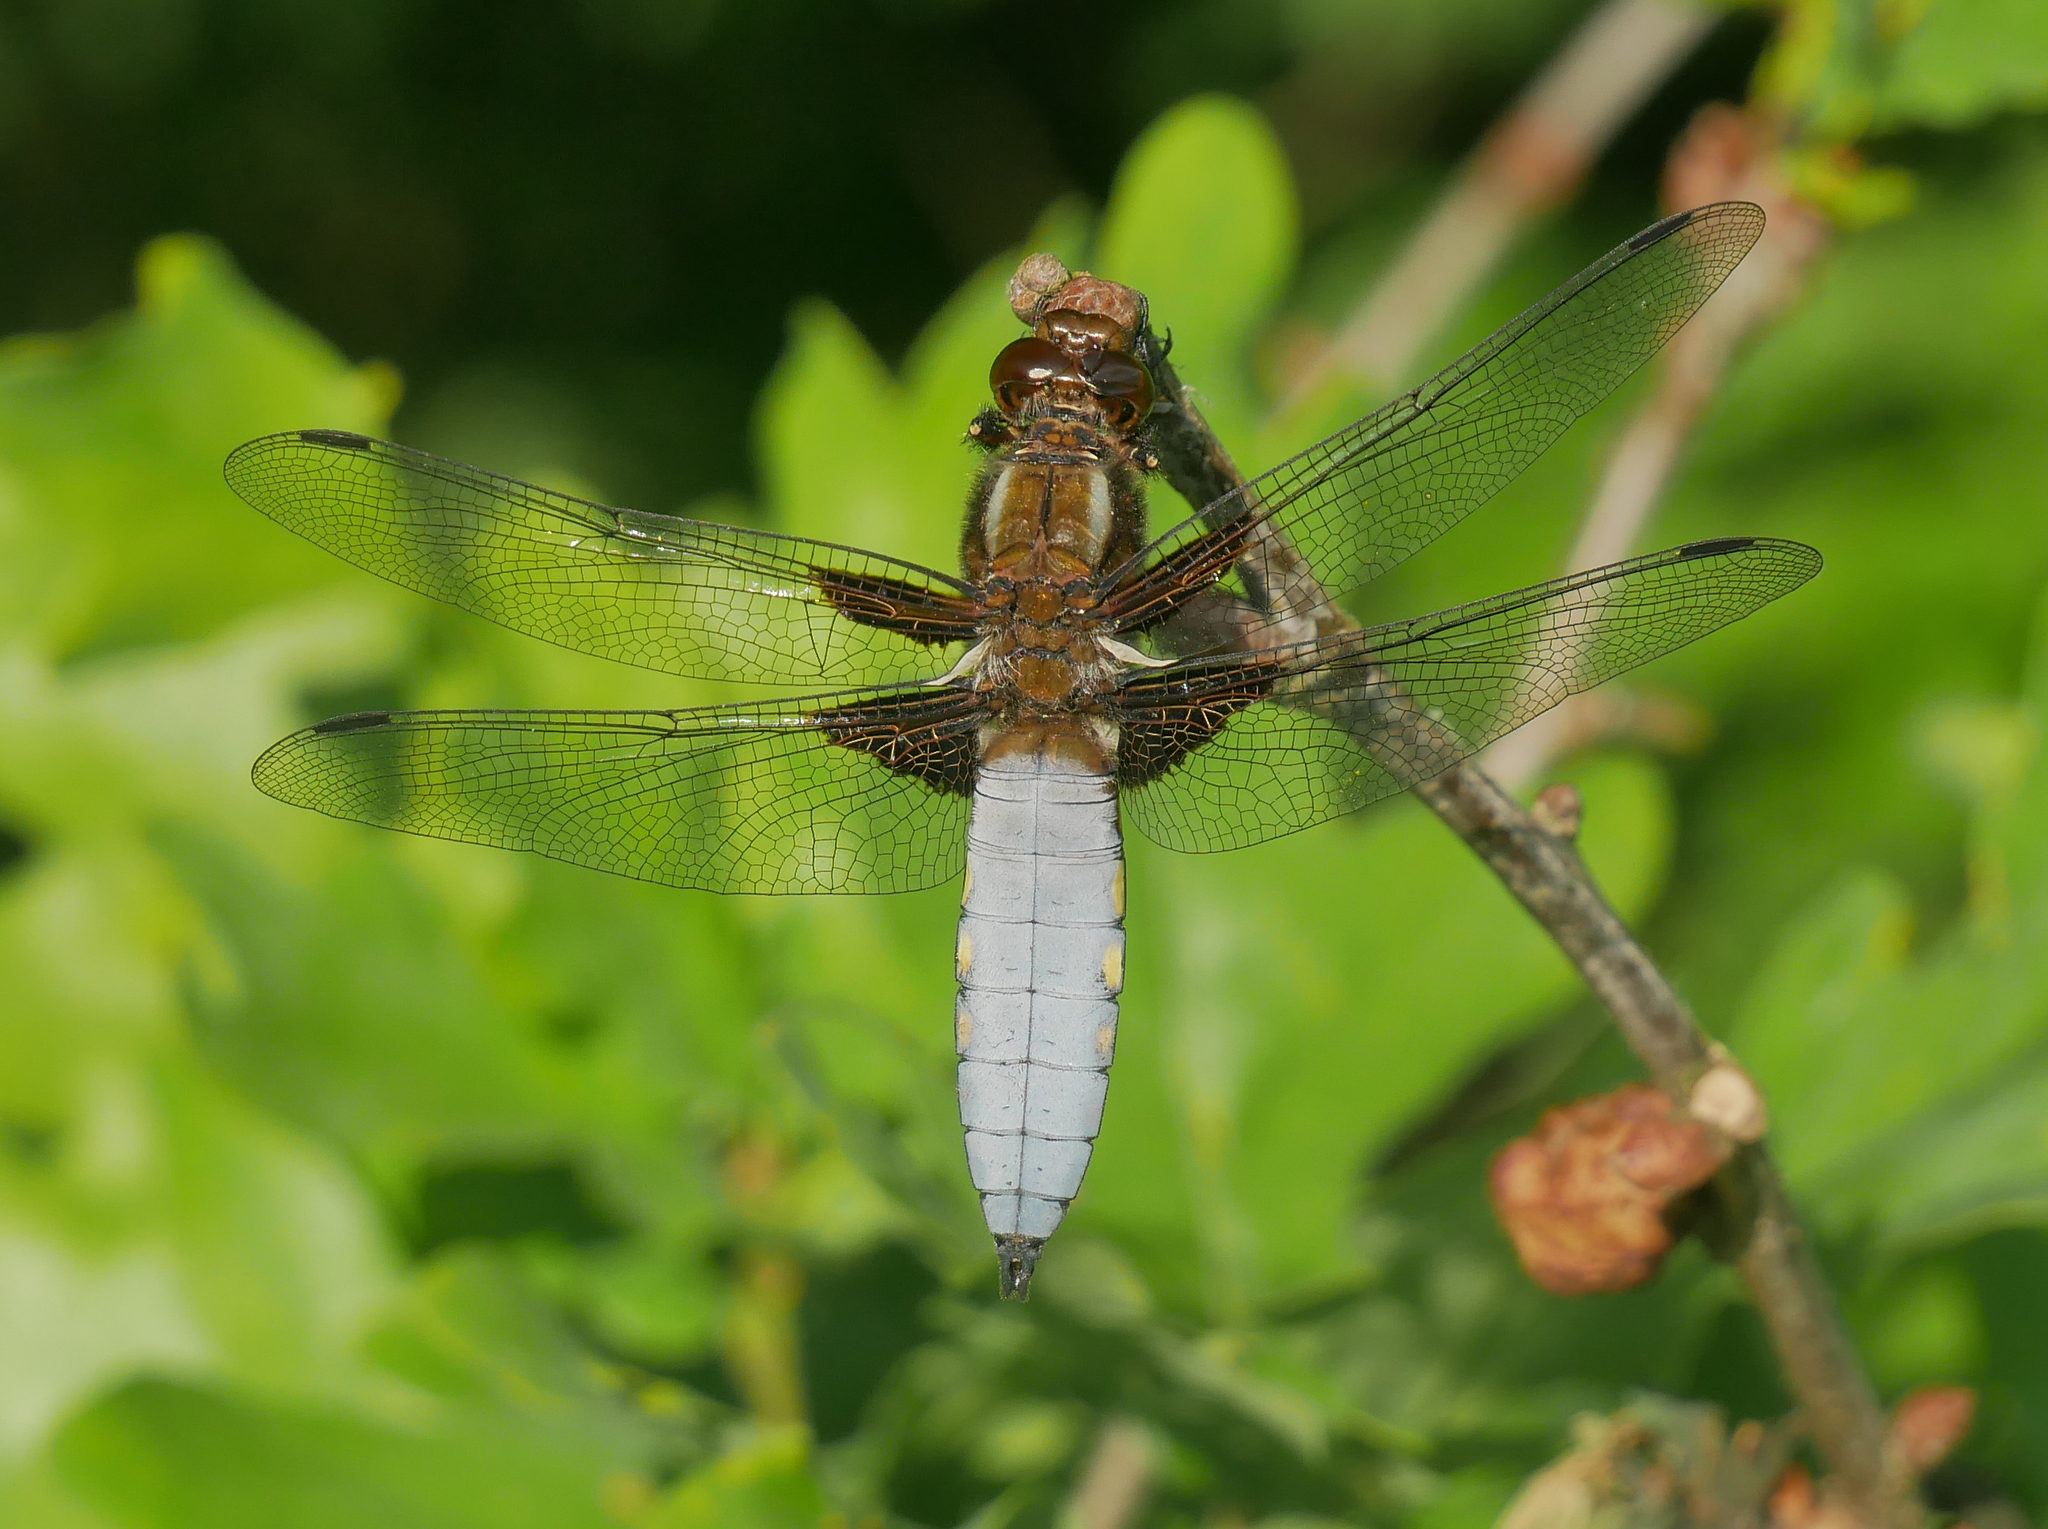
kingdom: Animalia
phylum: Arthropoda
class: Insecta
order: Odonata
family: Libellulidae
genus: Libellula
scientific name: Libellula depressa
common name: Broad-bodied chaser
